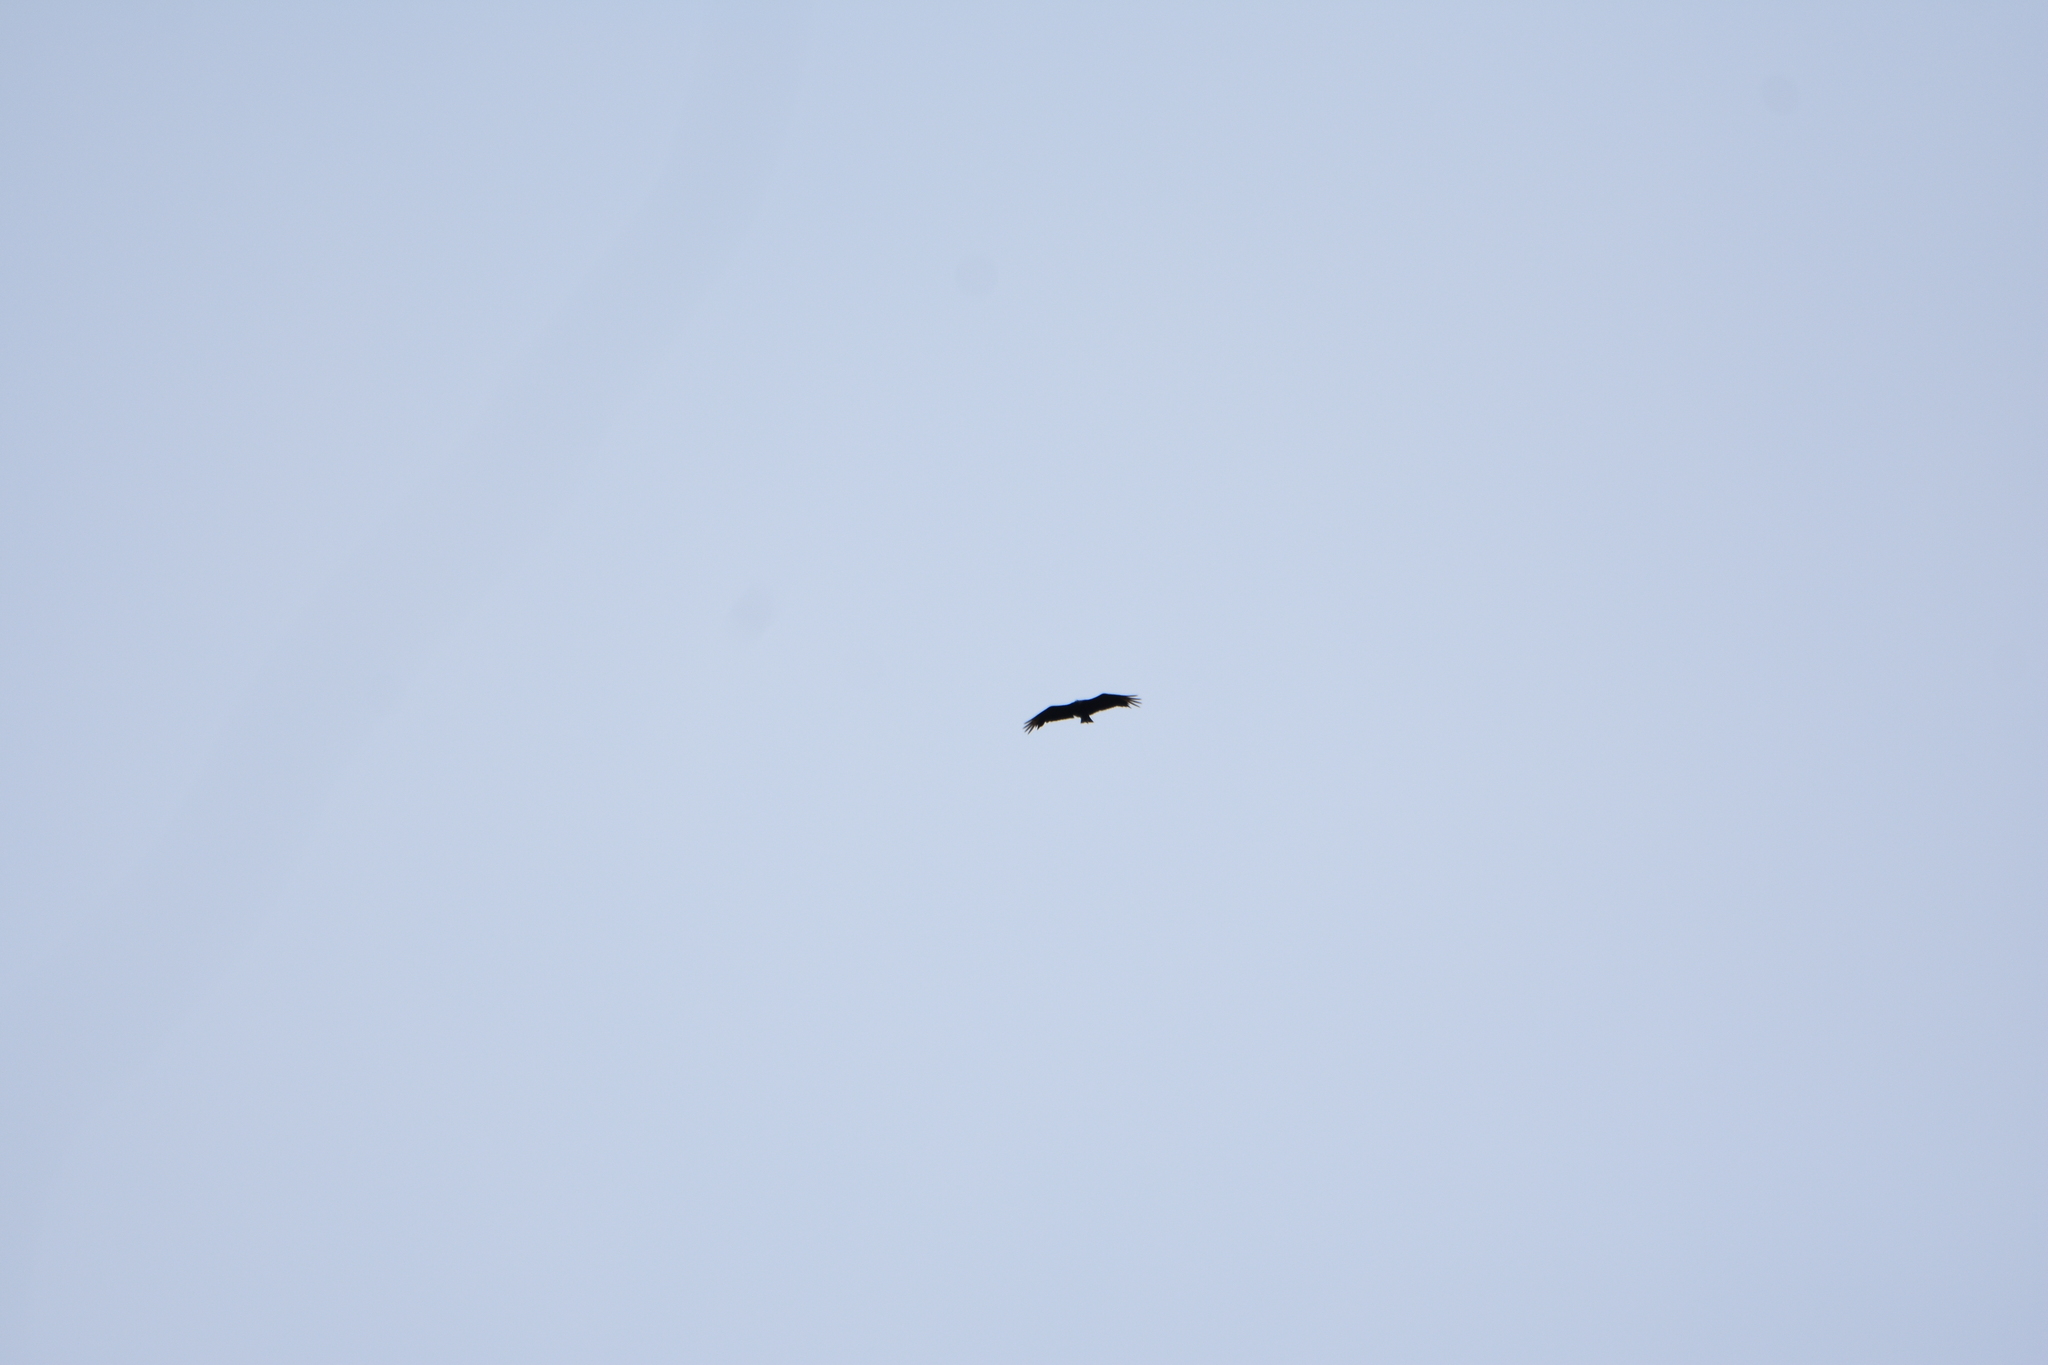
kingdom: Animalia
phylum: Chordata
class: Aves
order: Accipitriformes
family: Cathartidae
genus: Coragyps
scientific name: Coragyps atratus
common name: Black vulture
